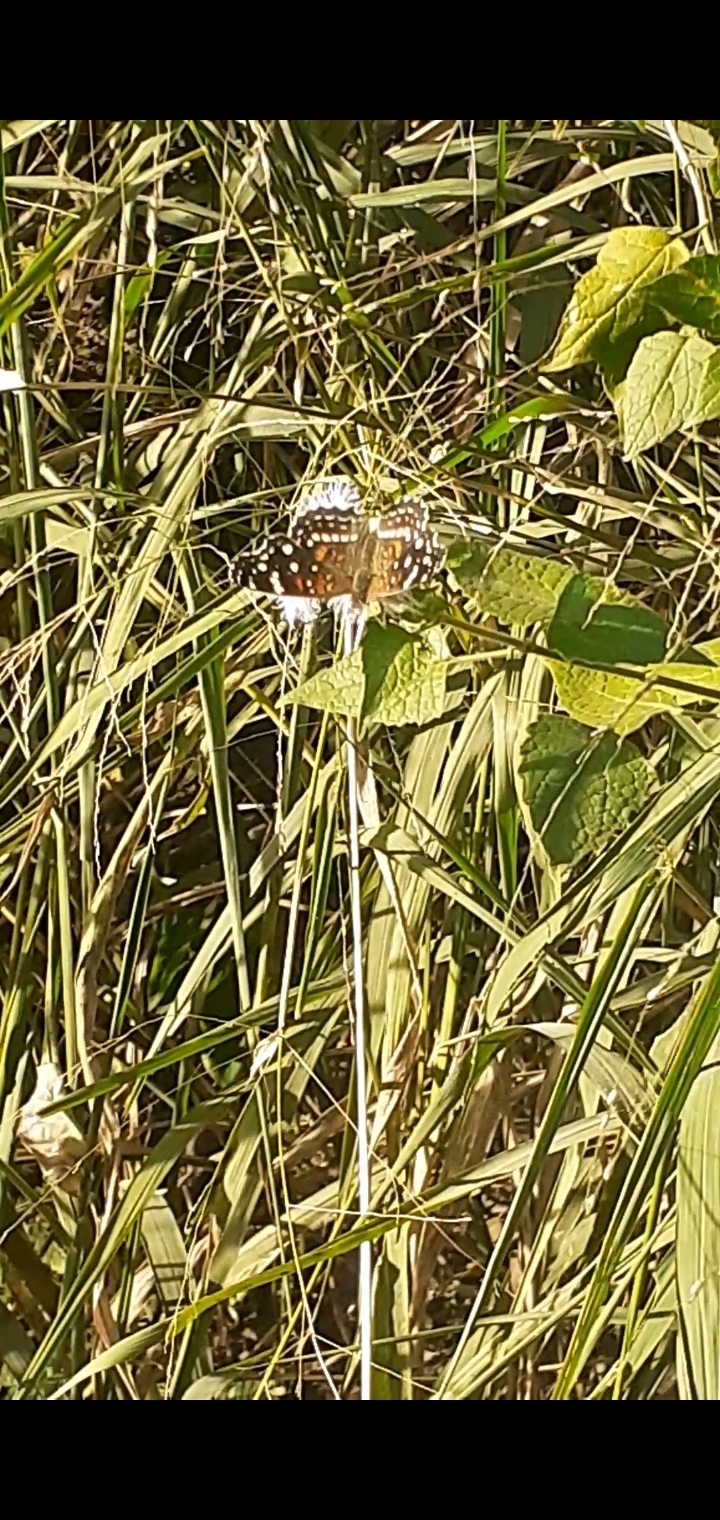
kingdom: Animalia
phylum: Arthropoda
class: Insecta
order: Lepidoptera
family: Nymphalidae
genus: Anthanassa
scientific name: Anthanassa texana
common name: Texan crescent
